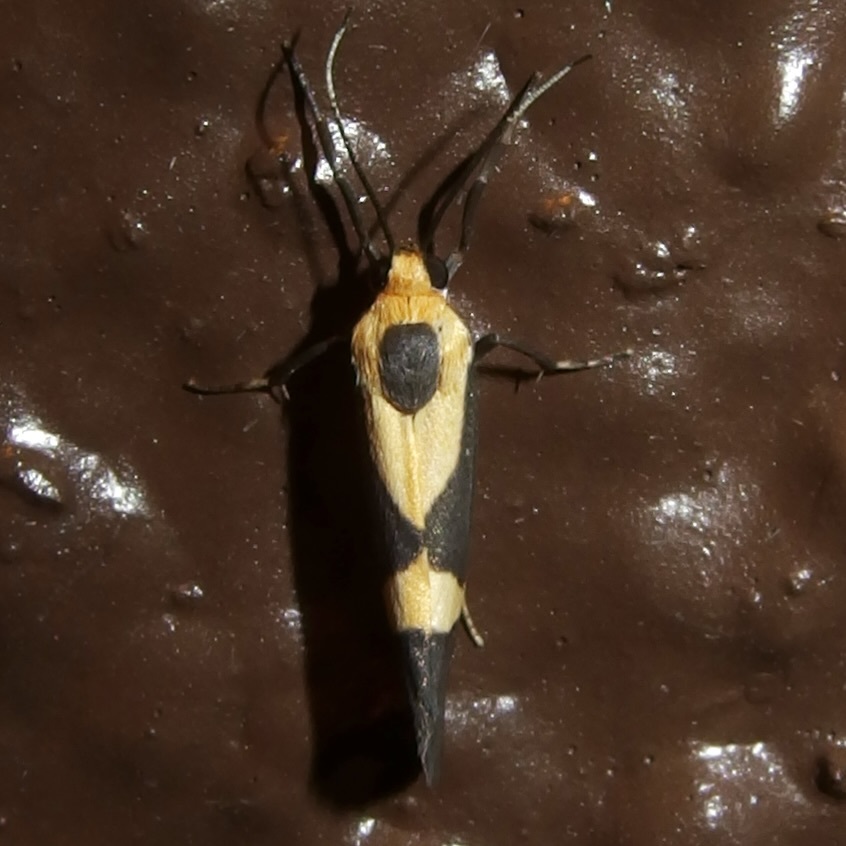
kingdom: Animalia
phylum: Arthropoda
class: Insecta
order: Lepidoptera
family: Erebidae
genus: Cisthene
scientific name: Cisthene tenuifascia
